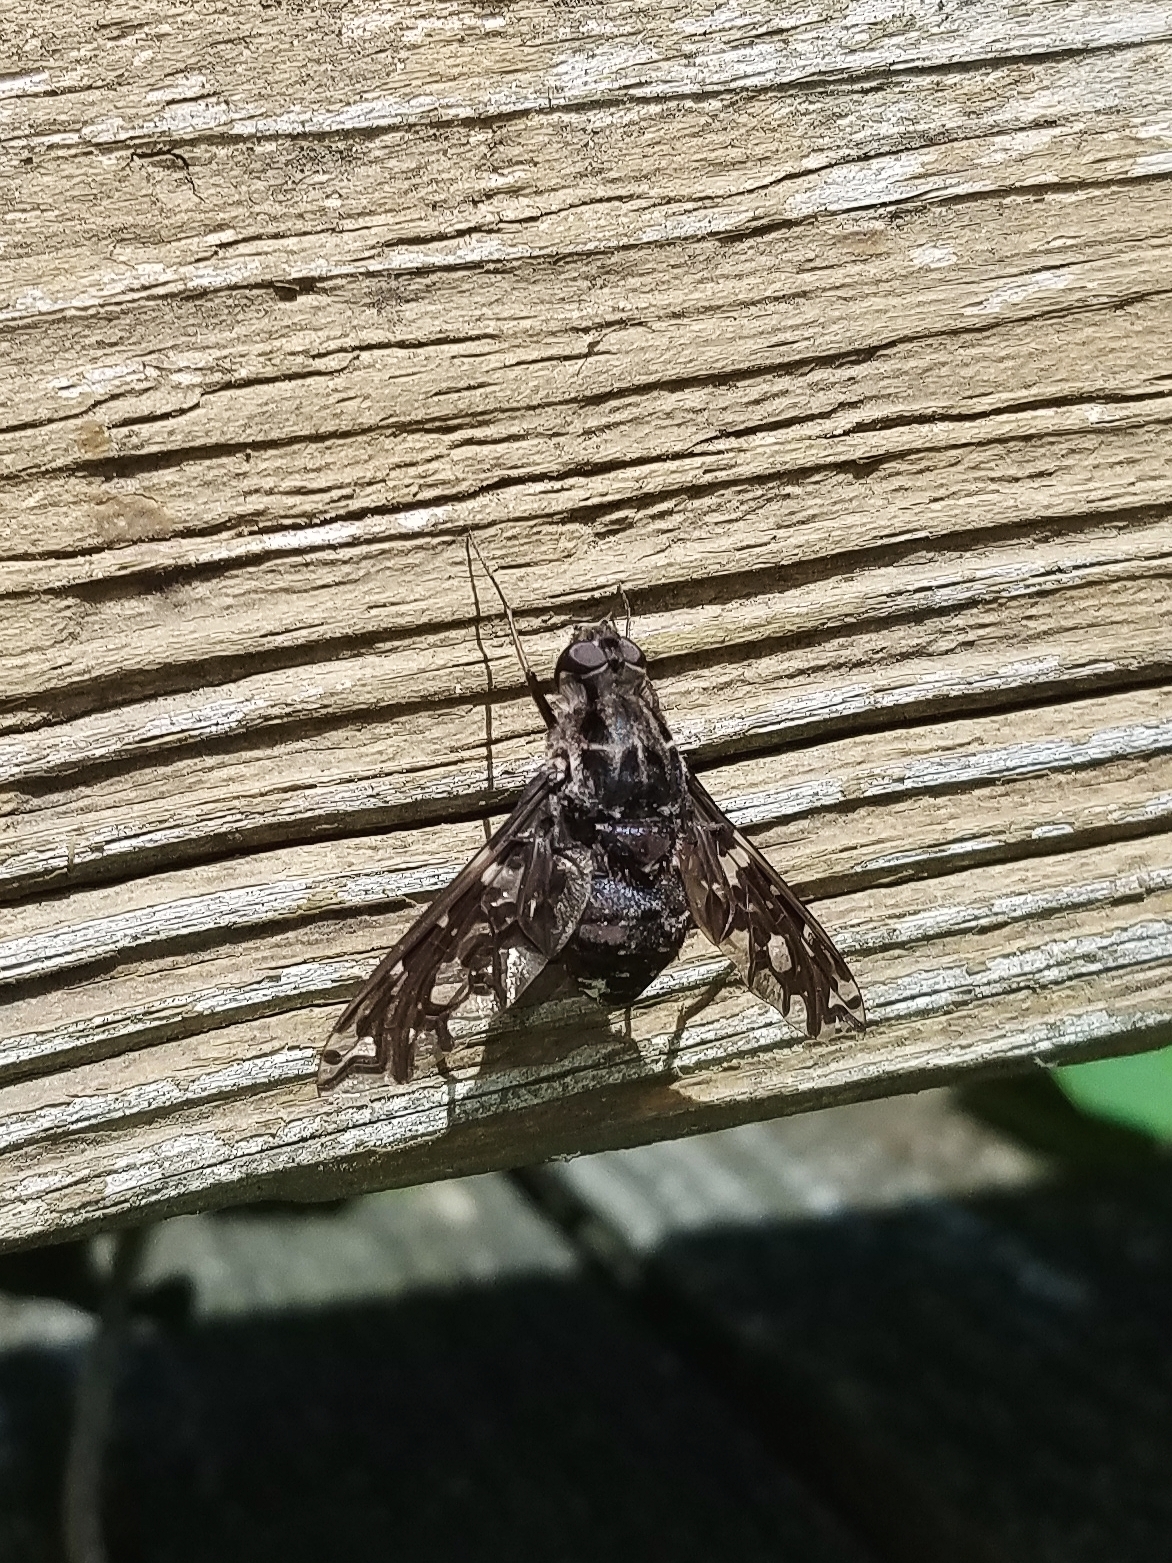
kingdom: Animalia
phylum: Arthropoda
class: Insecta
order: Diptera
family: Bombyliidae
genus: Xenox
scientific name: Xenox tigrinus
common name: Tiger bee fly
